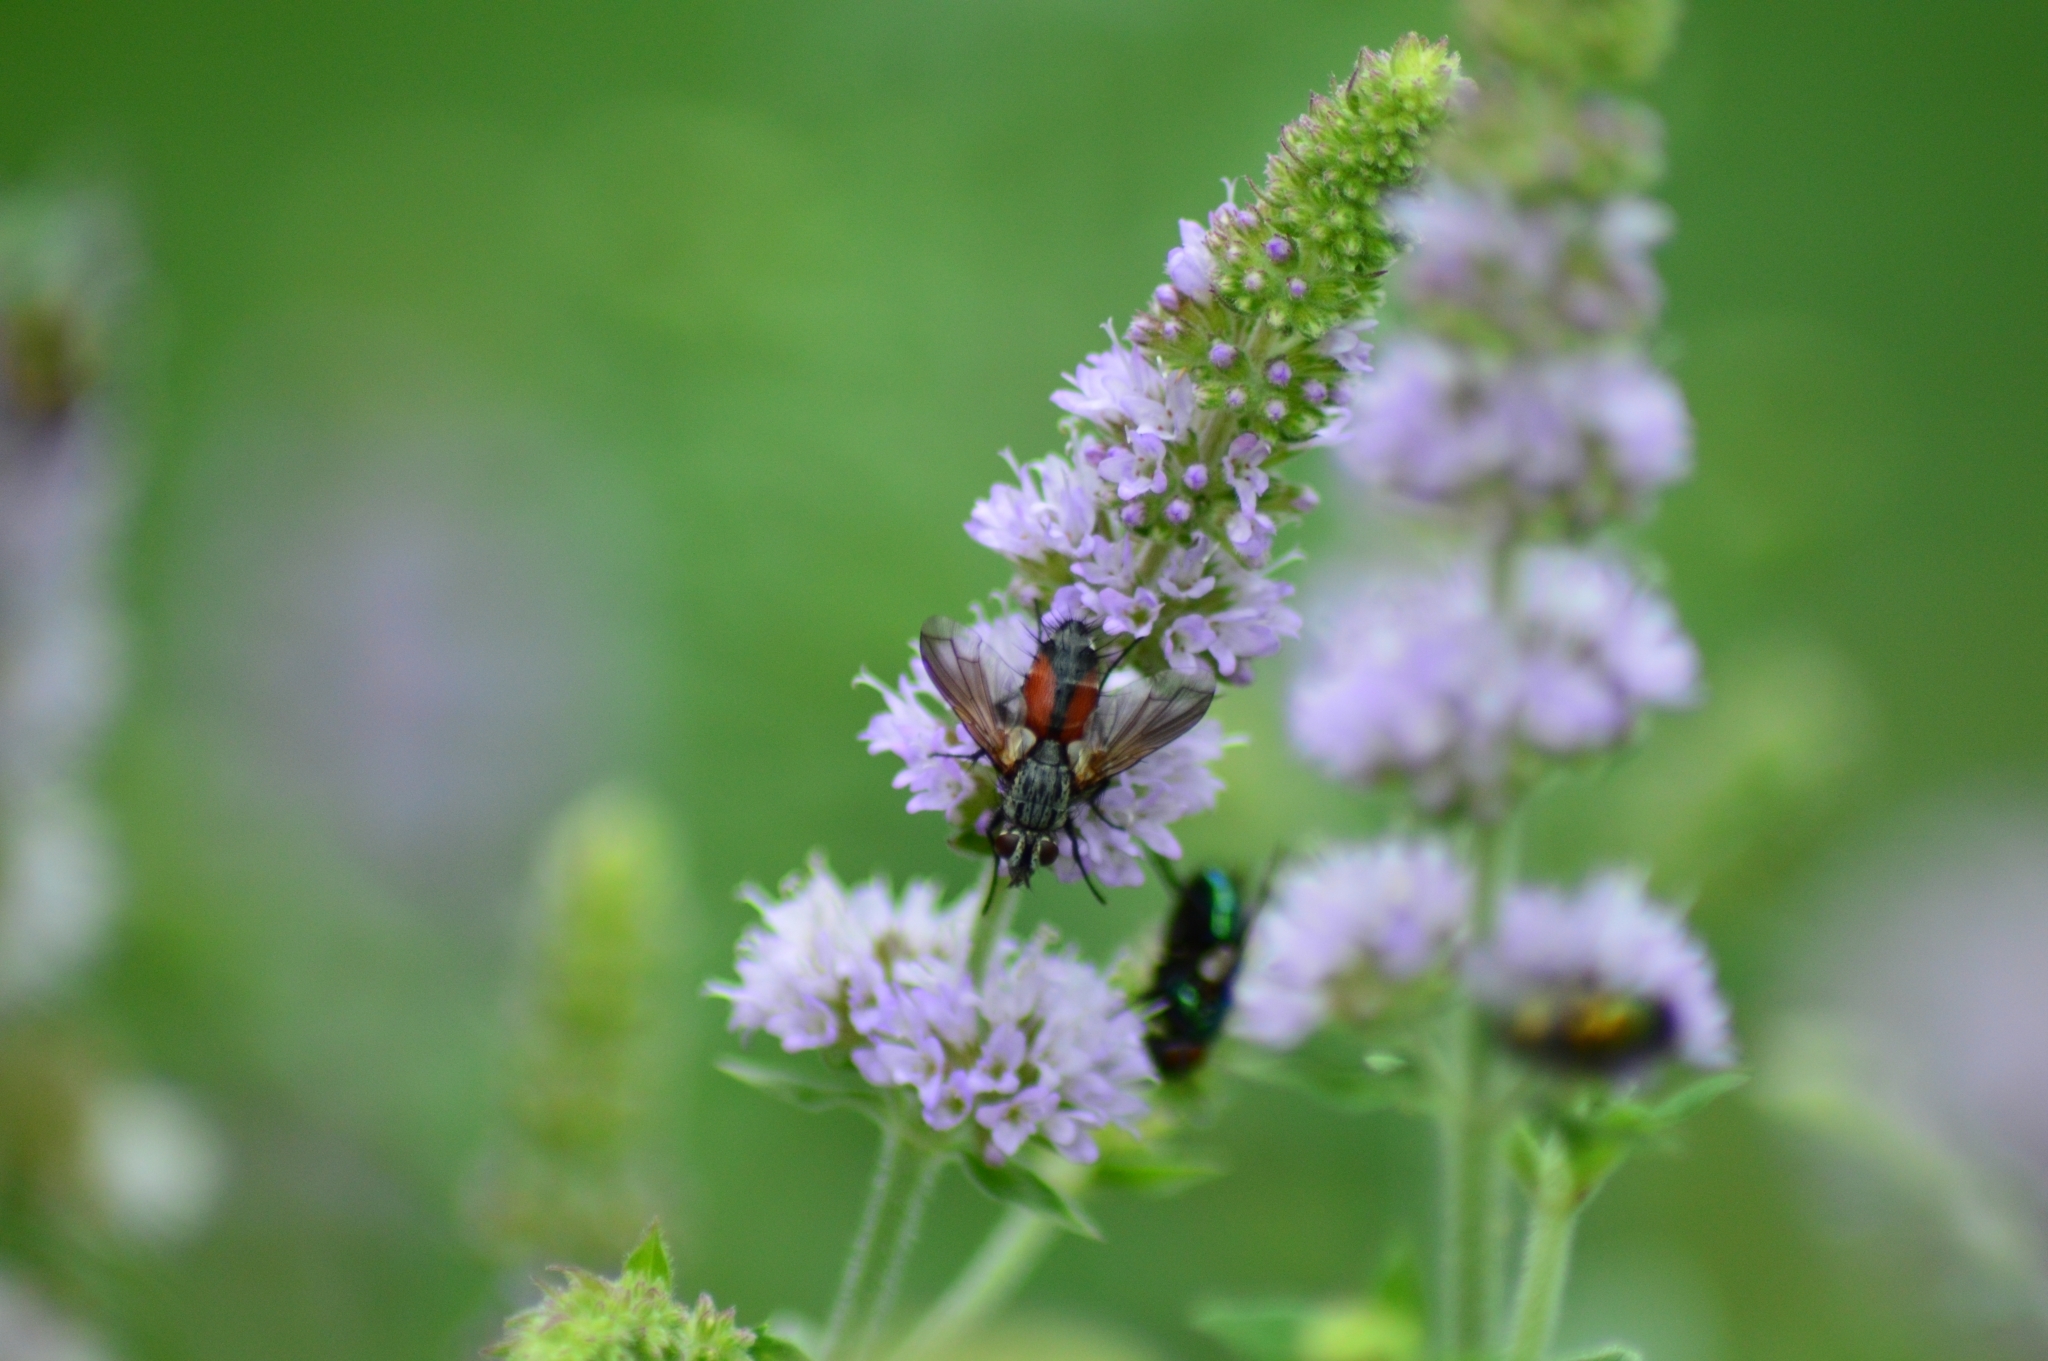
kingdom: Animalia
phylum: Arthropoda
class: Insecta
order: Diptera
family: Tachinidae
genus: Eriothrix
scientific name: Eriothrix rufomaculatus
